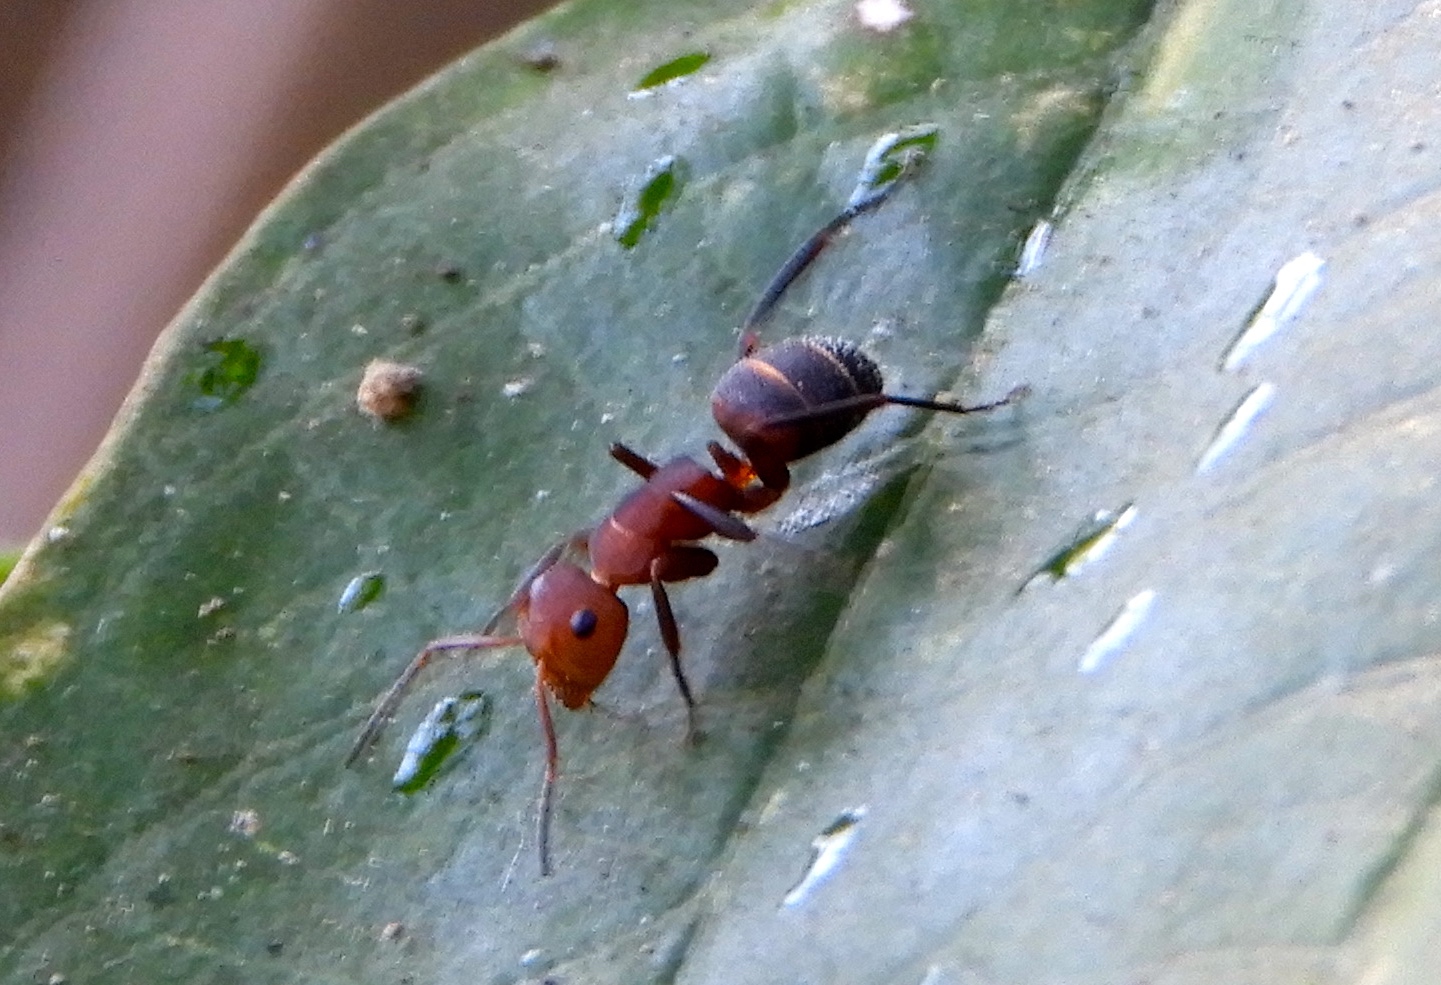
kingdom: Animalia
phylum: Arthropoda
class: Insecta
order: Hymenoptera
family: Formicidae
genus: Camponotus
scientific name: Camponotus rectangularis
